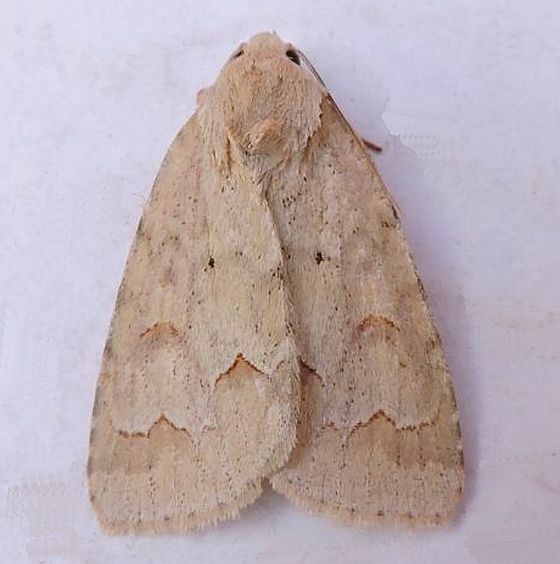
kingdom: Animalia
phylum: Arthropoda
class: Insecta
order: Lepidoptera
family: Noctuidae
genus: Acronicta
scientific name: Acronicta betulae
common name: Birch dagger moth
